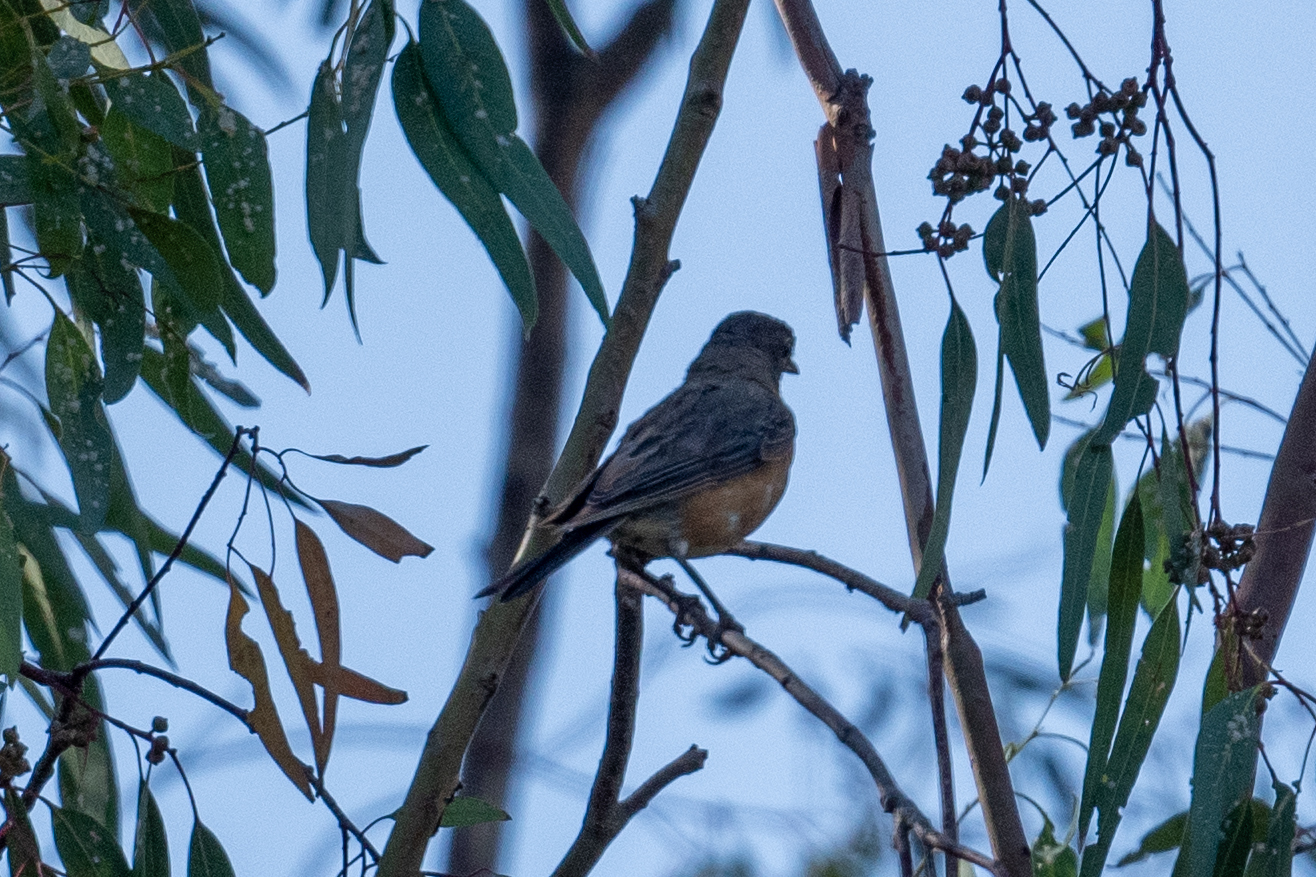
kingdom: Animalia
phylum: Chordata
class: Aves
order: Passeriformes
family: Turdidae
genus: Turdus
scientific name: Turdus migratorius
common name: American robin
